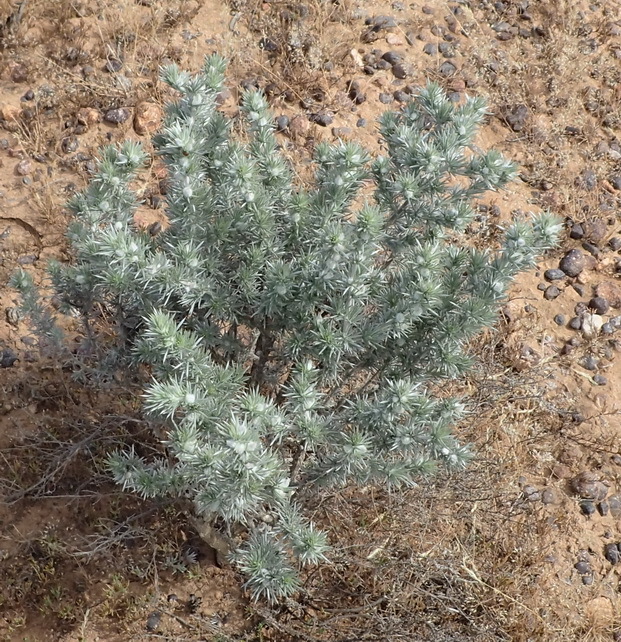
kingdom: Plantae
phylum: Tracheophyta
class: Magnoliopsida
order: Fabales
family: Fabaceae
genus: Aspalathus
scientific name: Aspalathus hystrix
